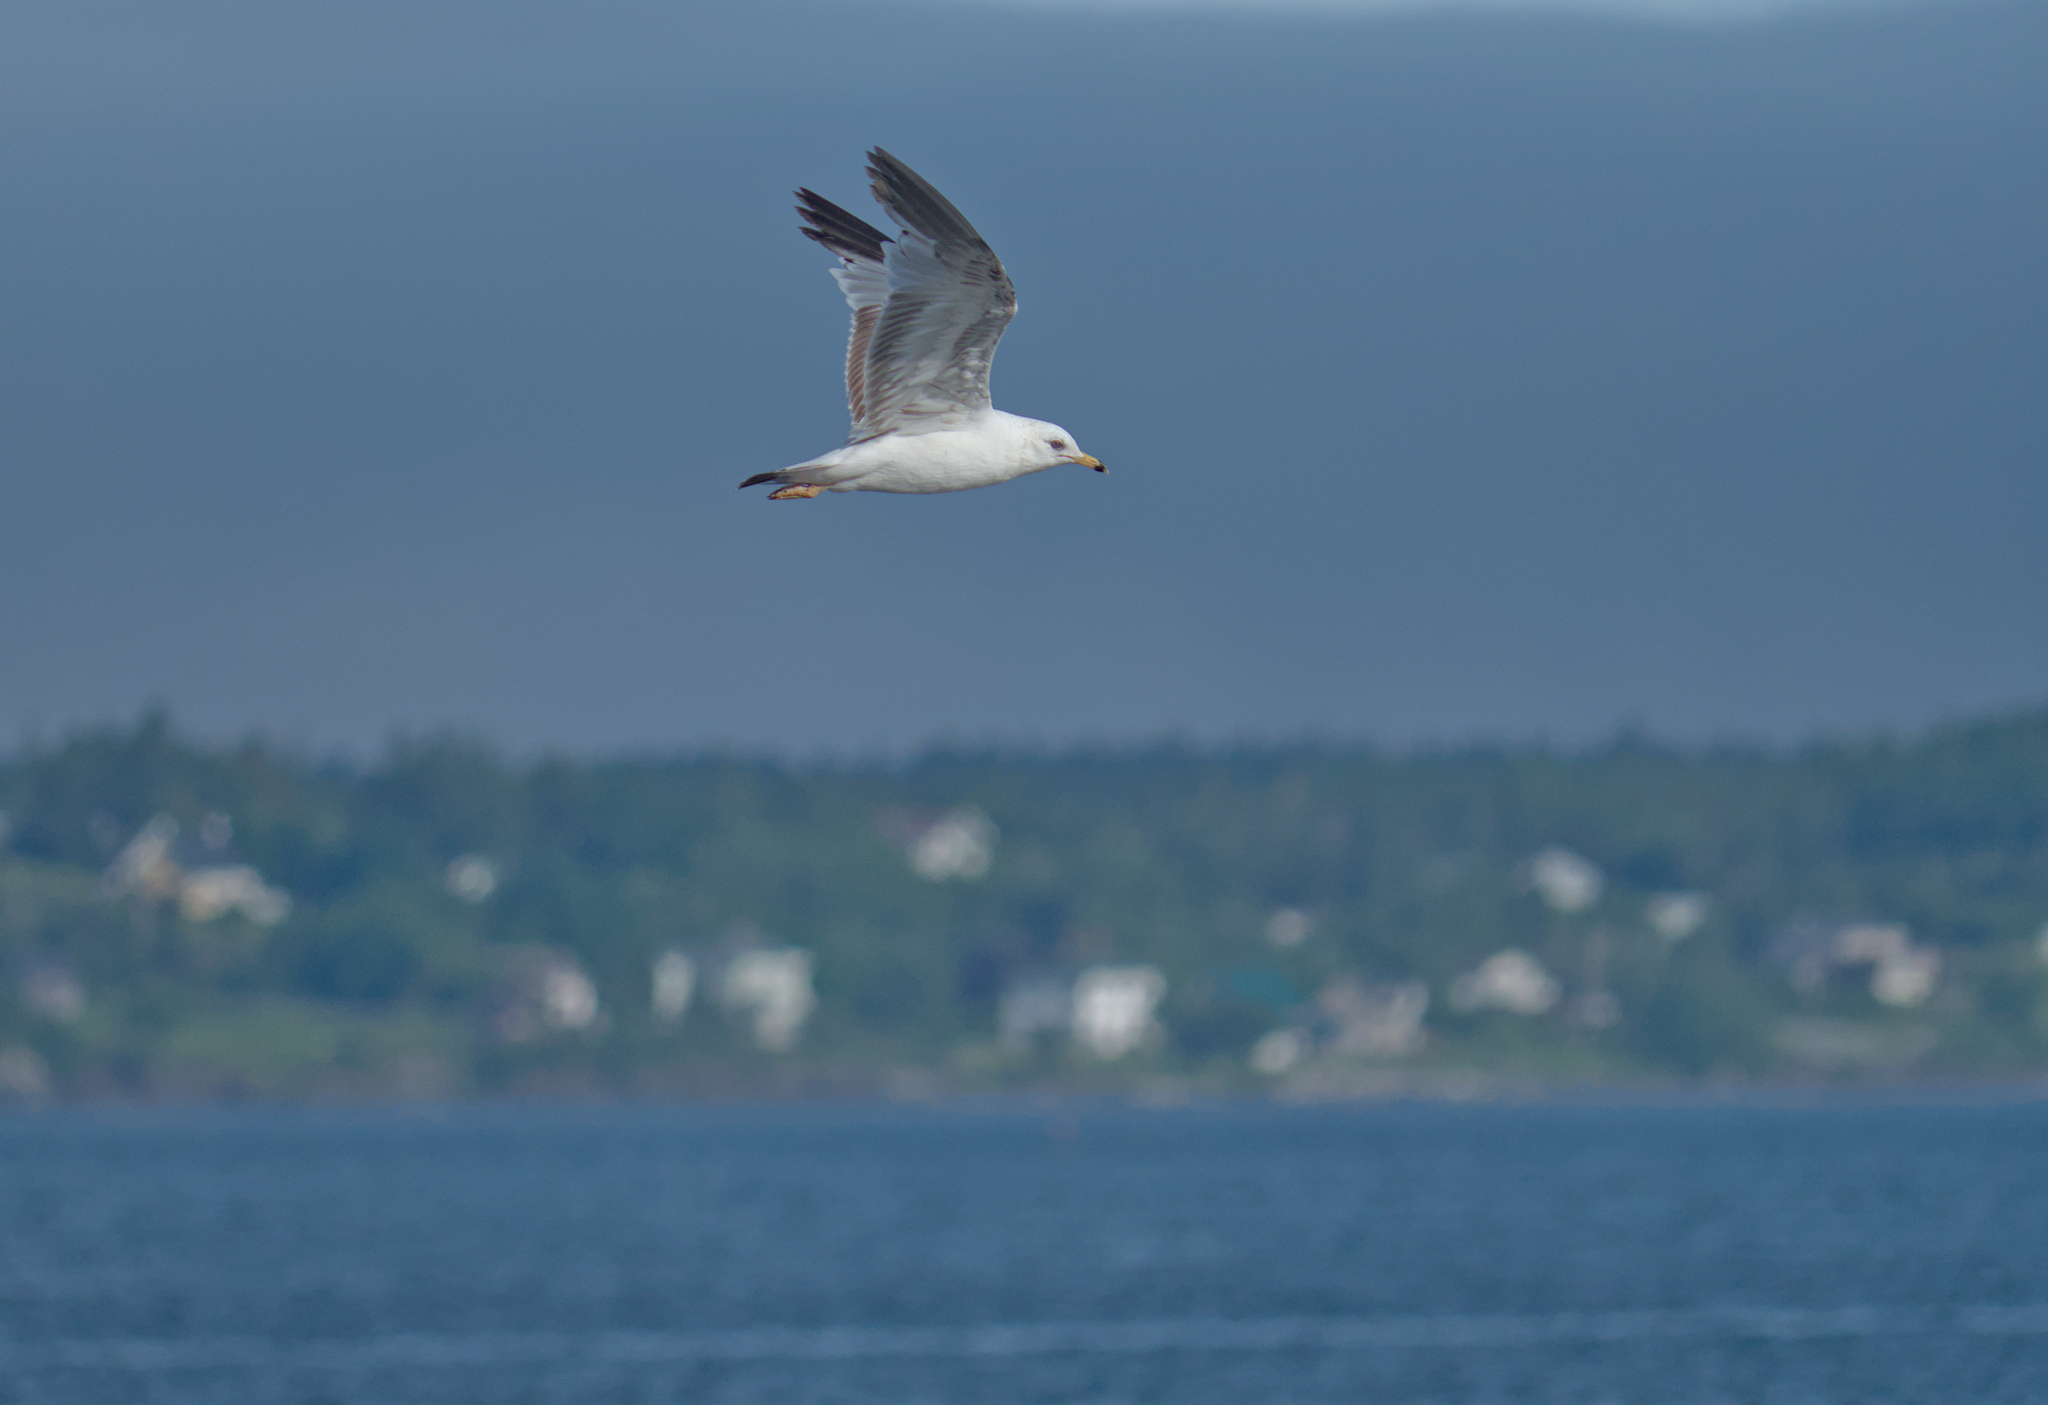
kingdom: Animalia
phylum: Chordata
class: Aves
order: Charadriiformes
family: Laridae
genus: Larus
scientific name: Larus delawarensis
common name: Ring-billed gull
